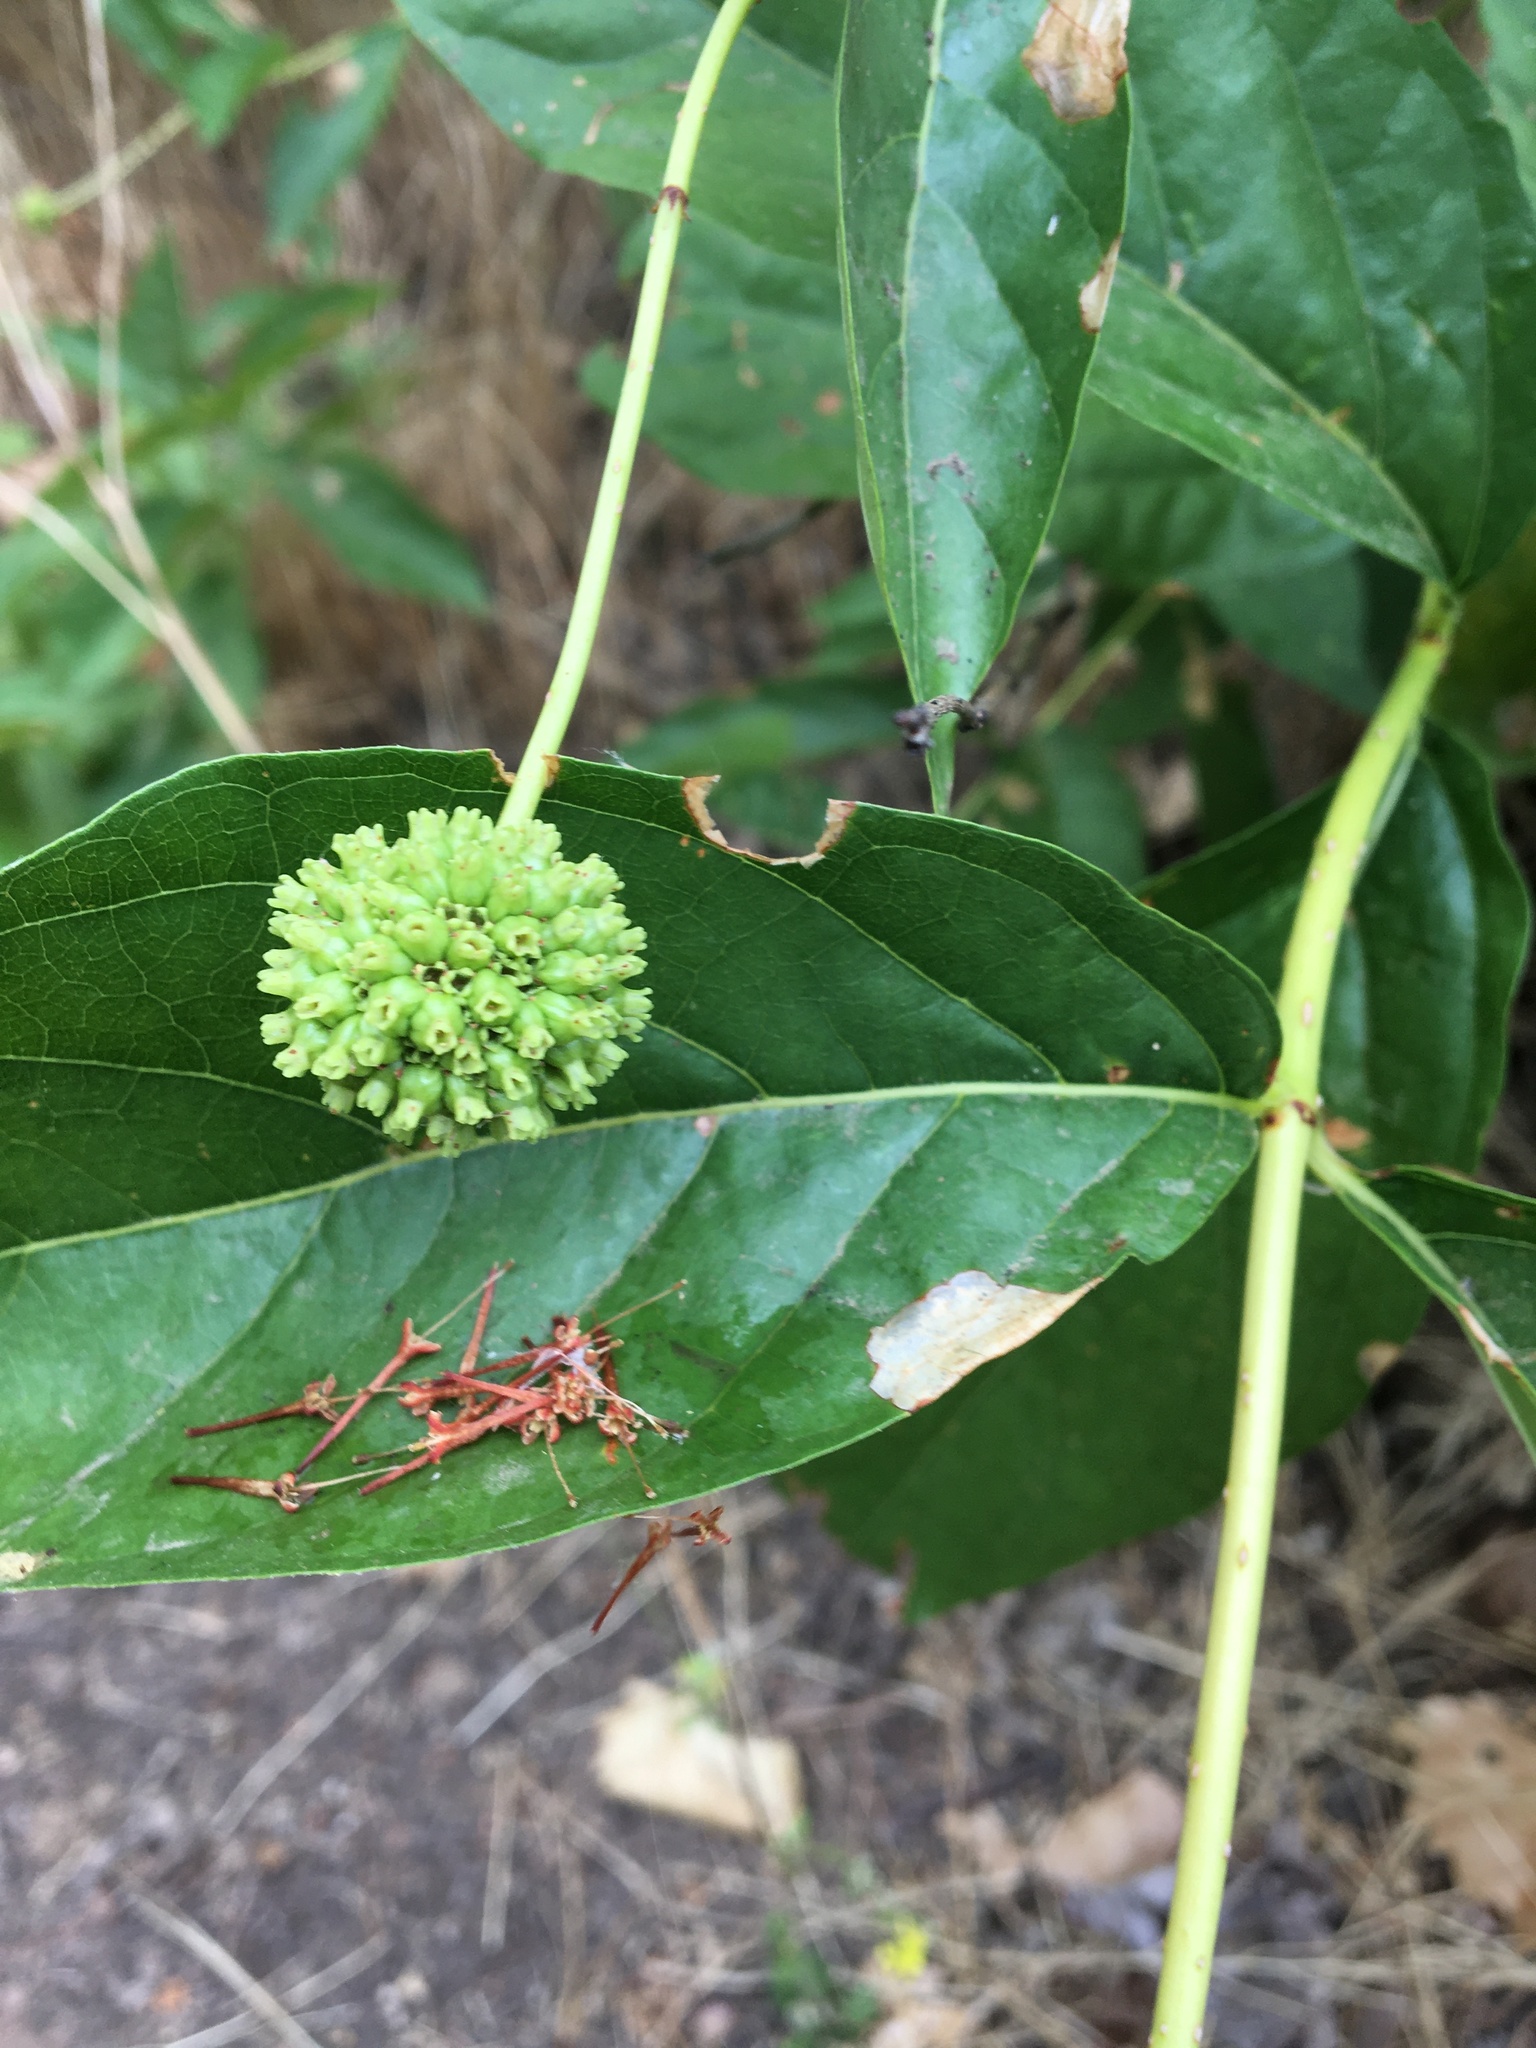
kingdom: Plantae
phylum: Tracheophyta
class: Magnoliopsida
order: Gentianales
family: Rubiaceae
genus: Cephalanthus
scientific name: Cephalanthus occidentalis
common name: Button-willow
